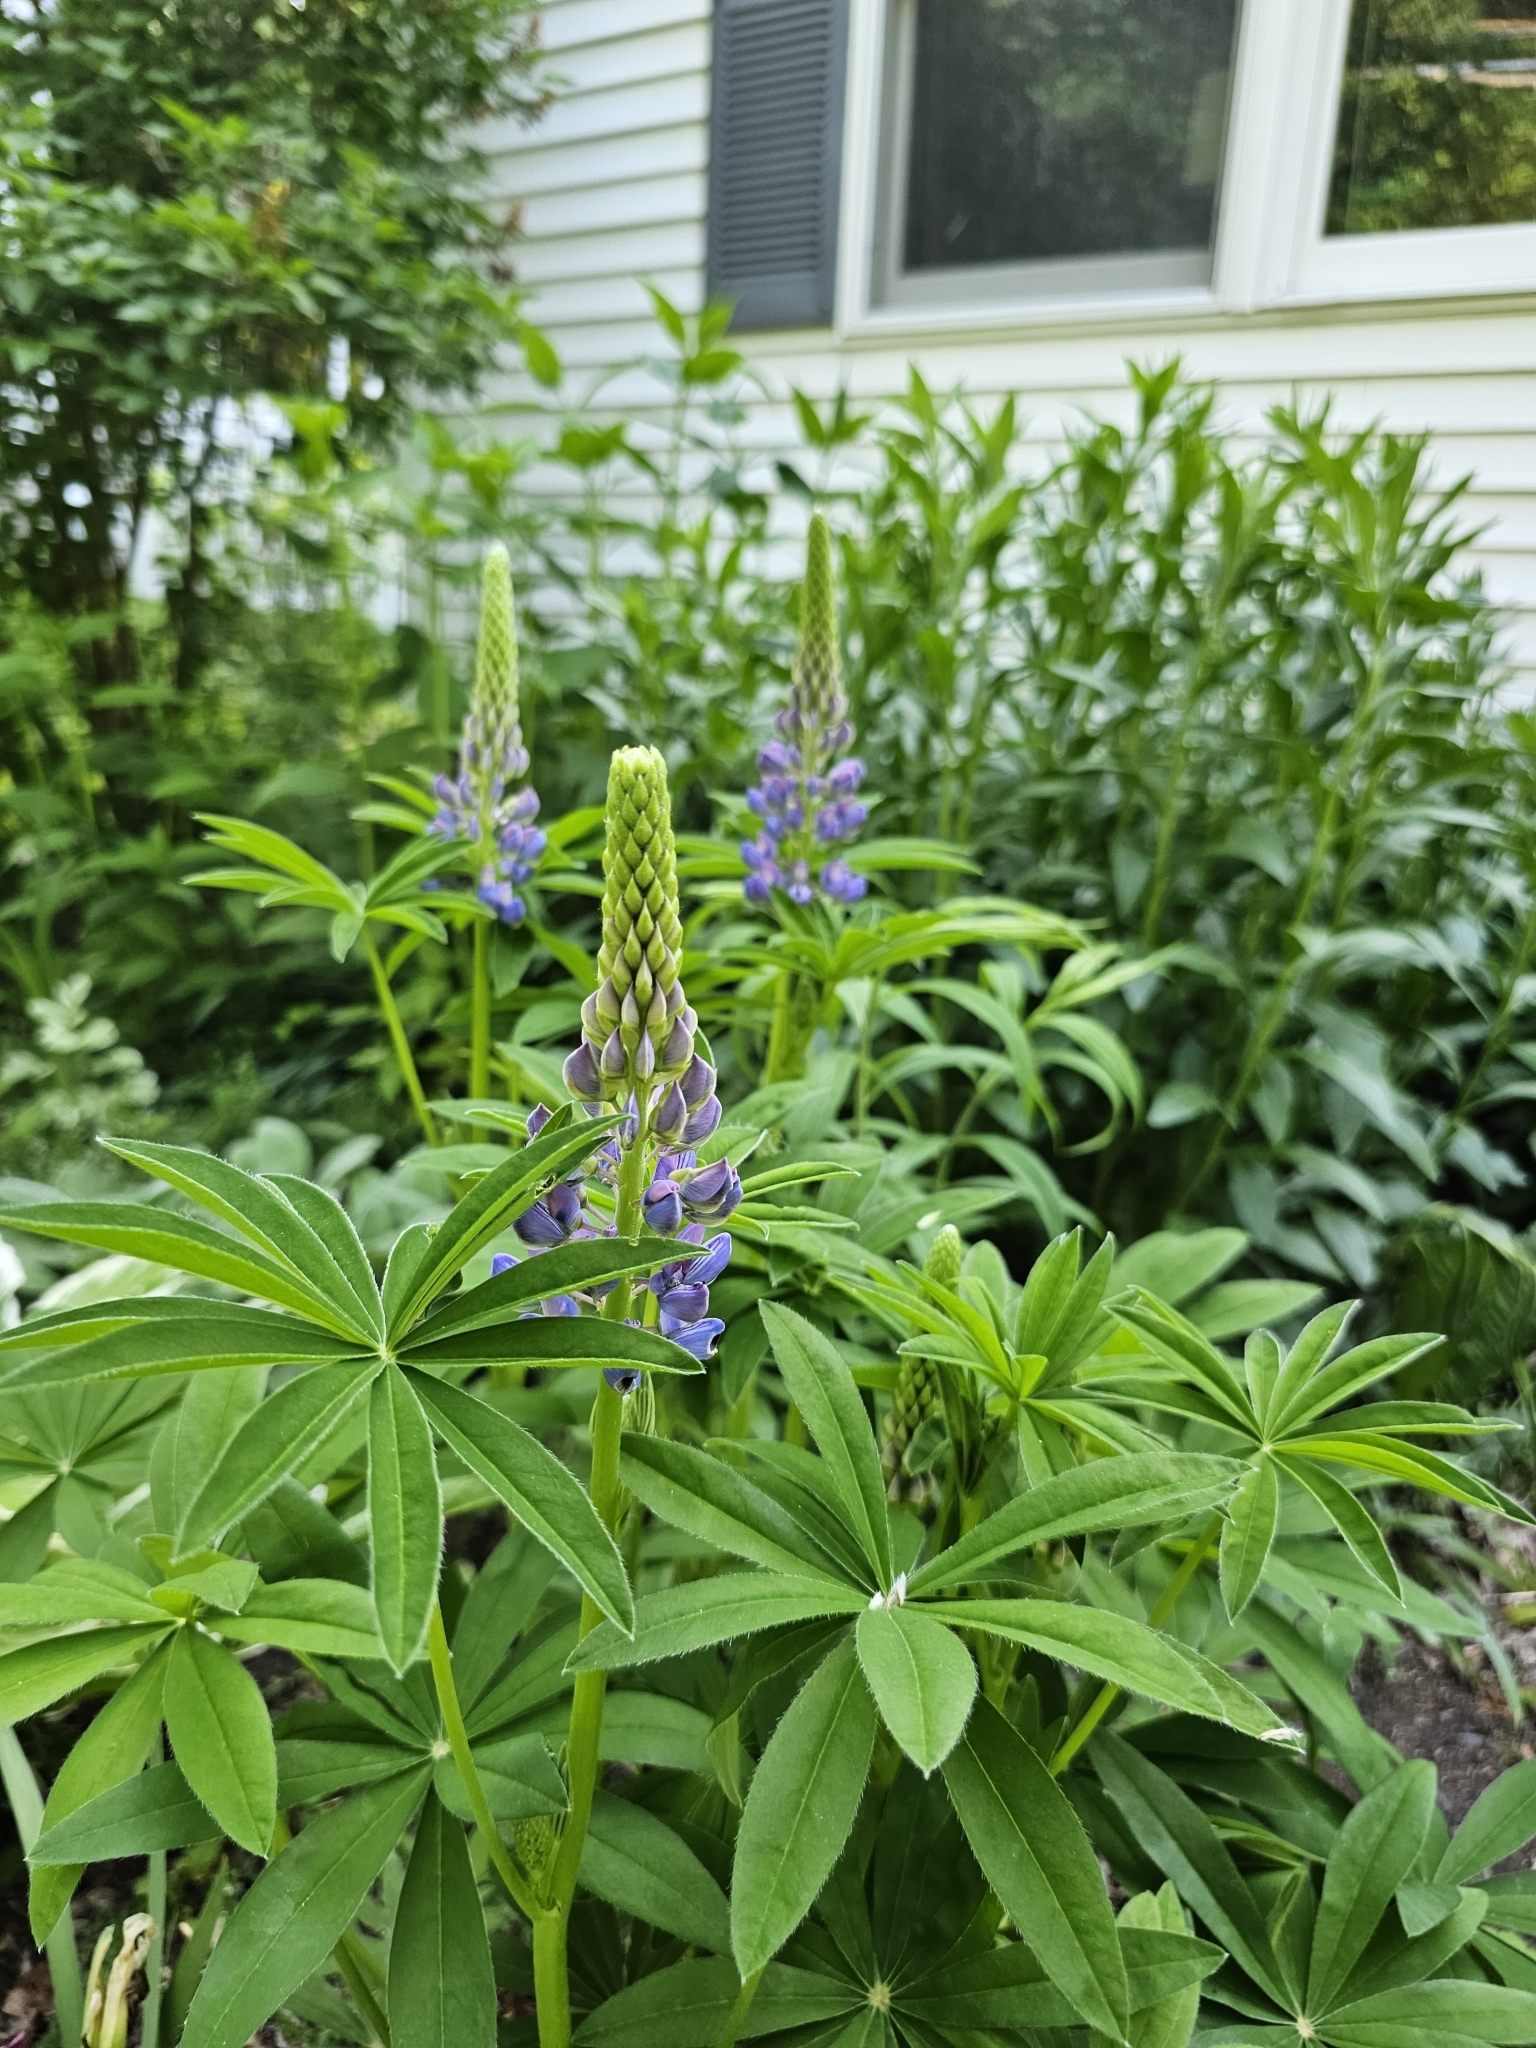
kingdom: Plantae
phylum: Tracheophyta
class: Magnoliopsida
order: Fabales
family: Fabaceae
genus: Lupinus
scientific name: Lupinus polyphyllus
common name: Garden lupin
